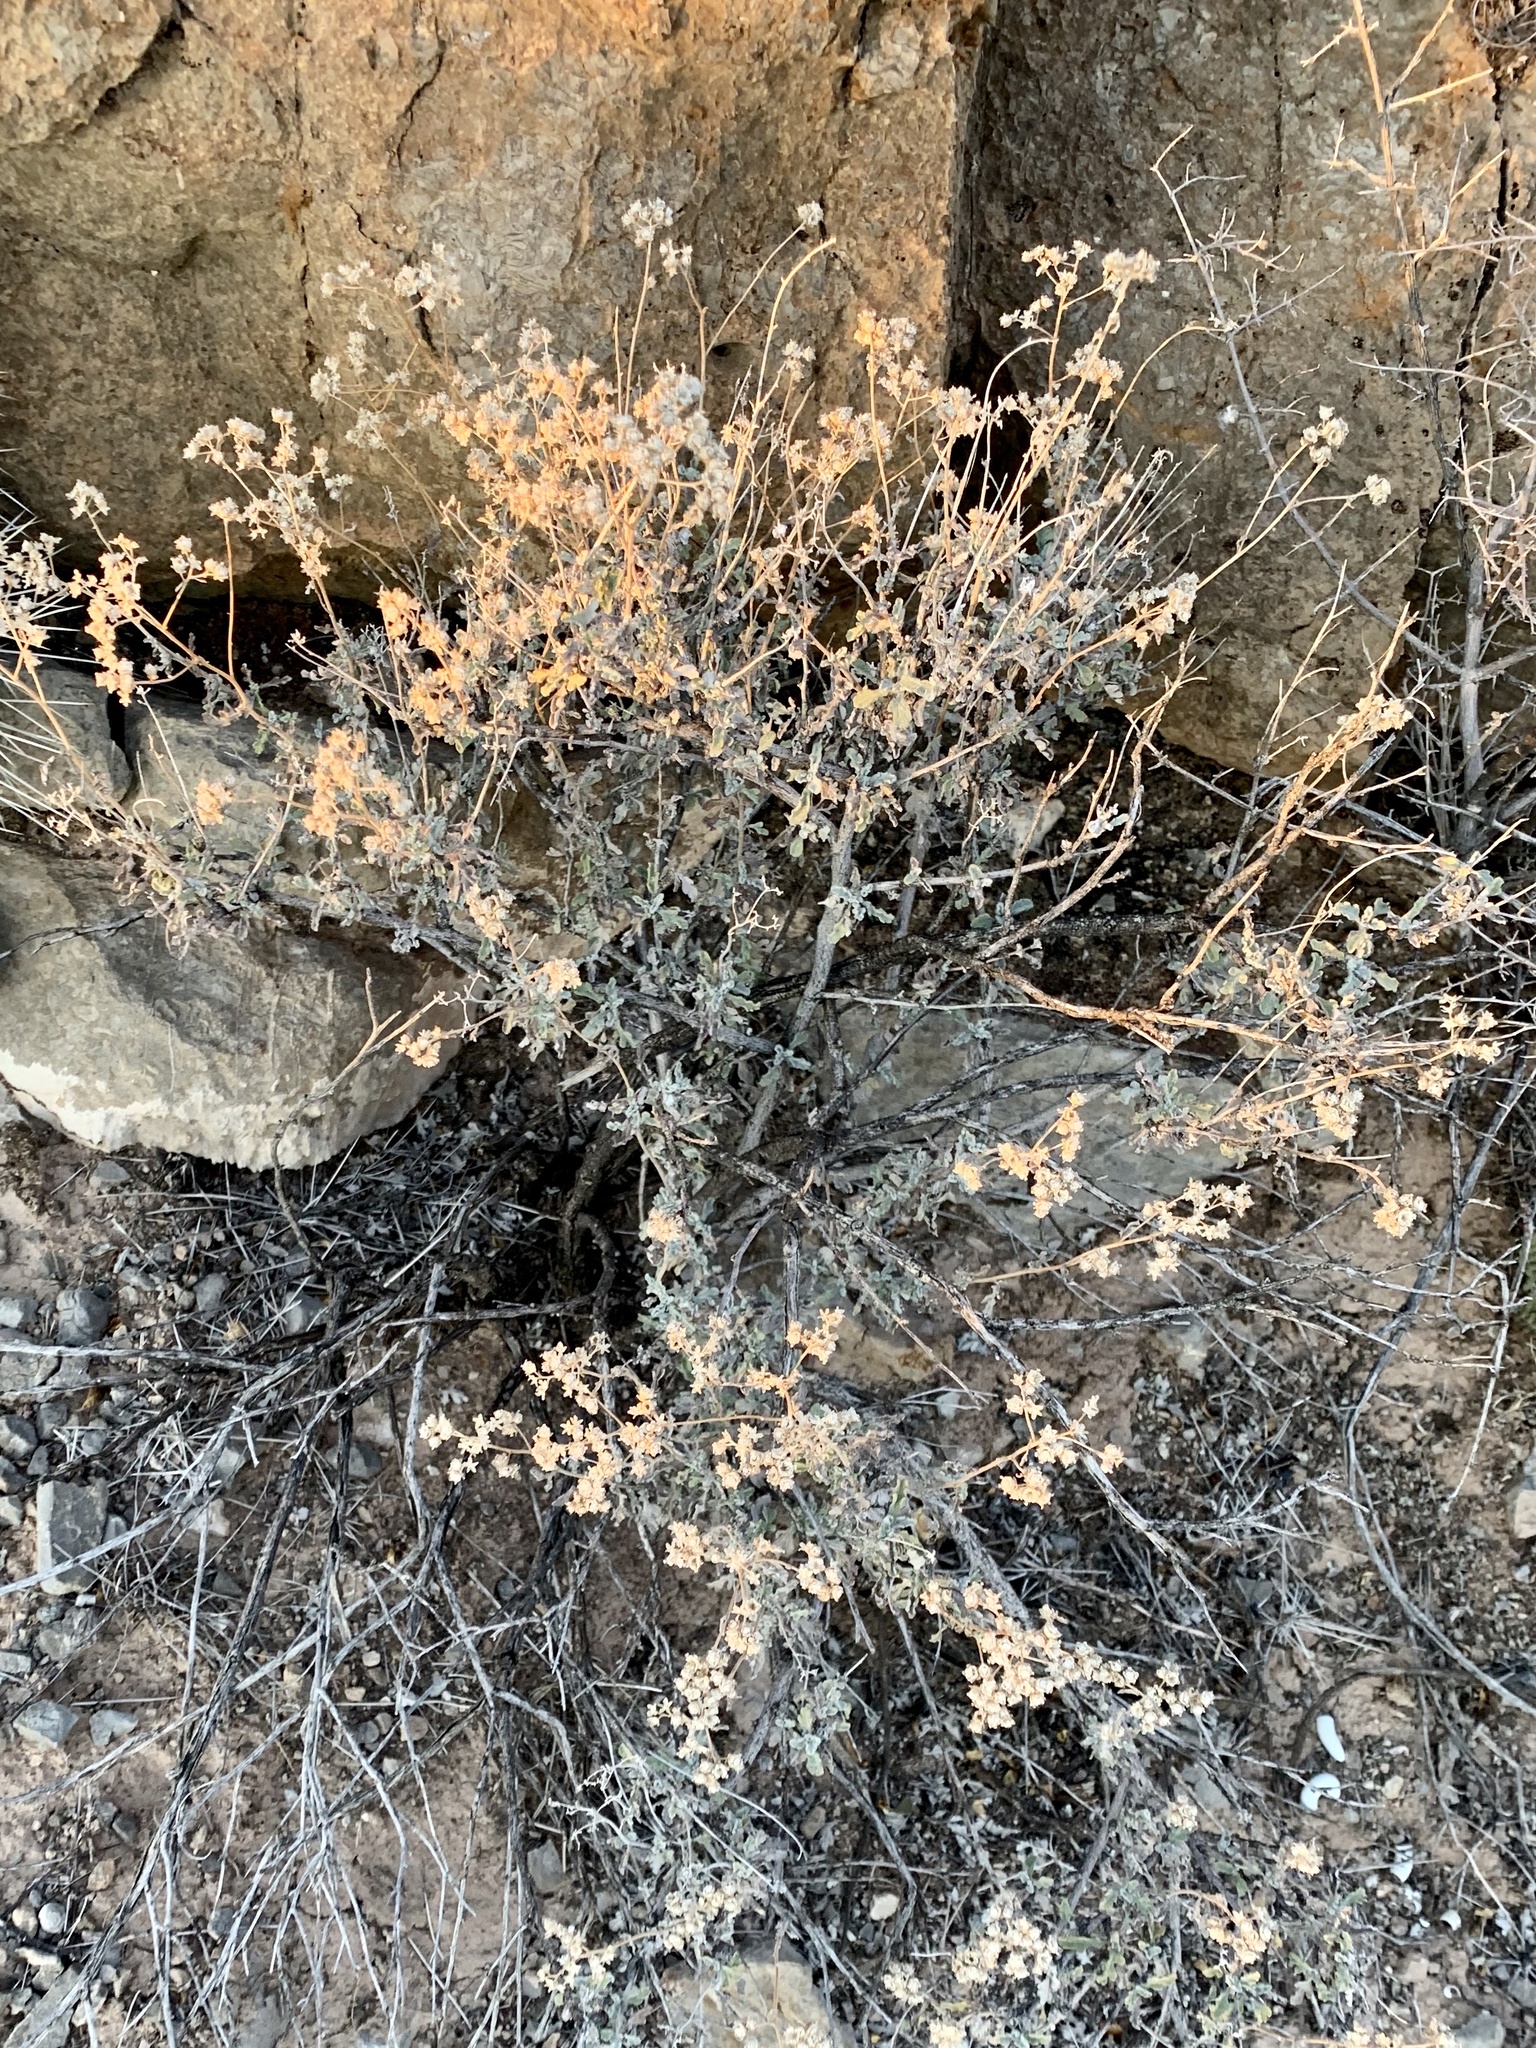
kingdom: Plantae
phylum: Tracheophyta
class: Magnoliopsida
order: Asterales
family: Asteraceae
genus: Parthenium
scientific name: Parthenium incanum
